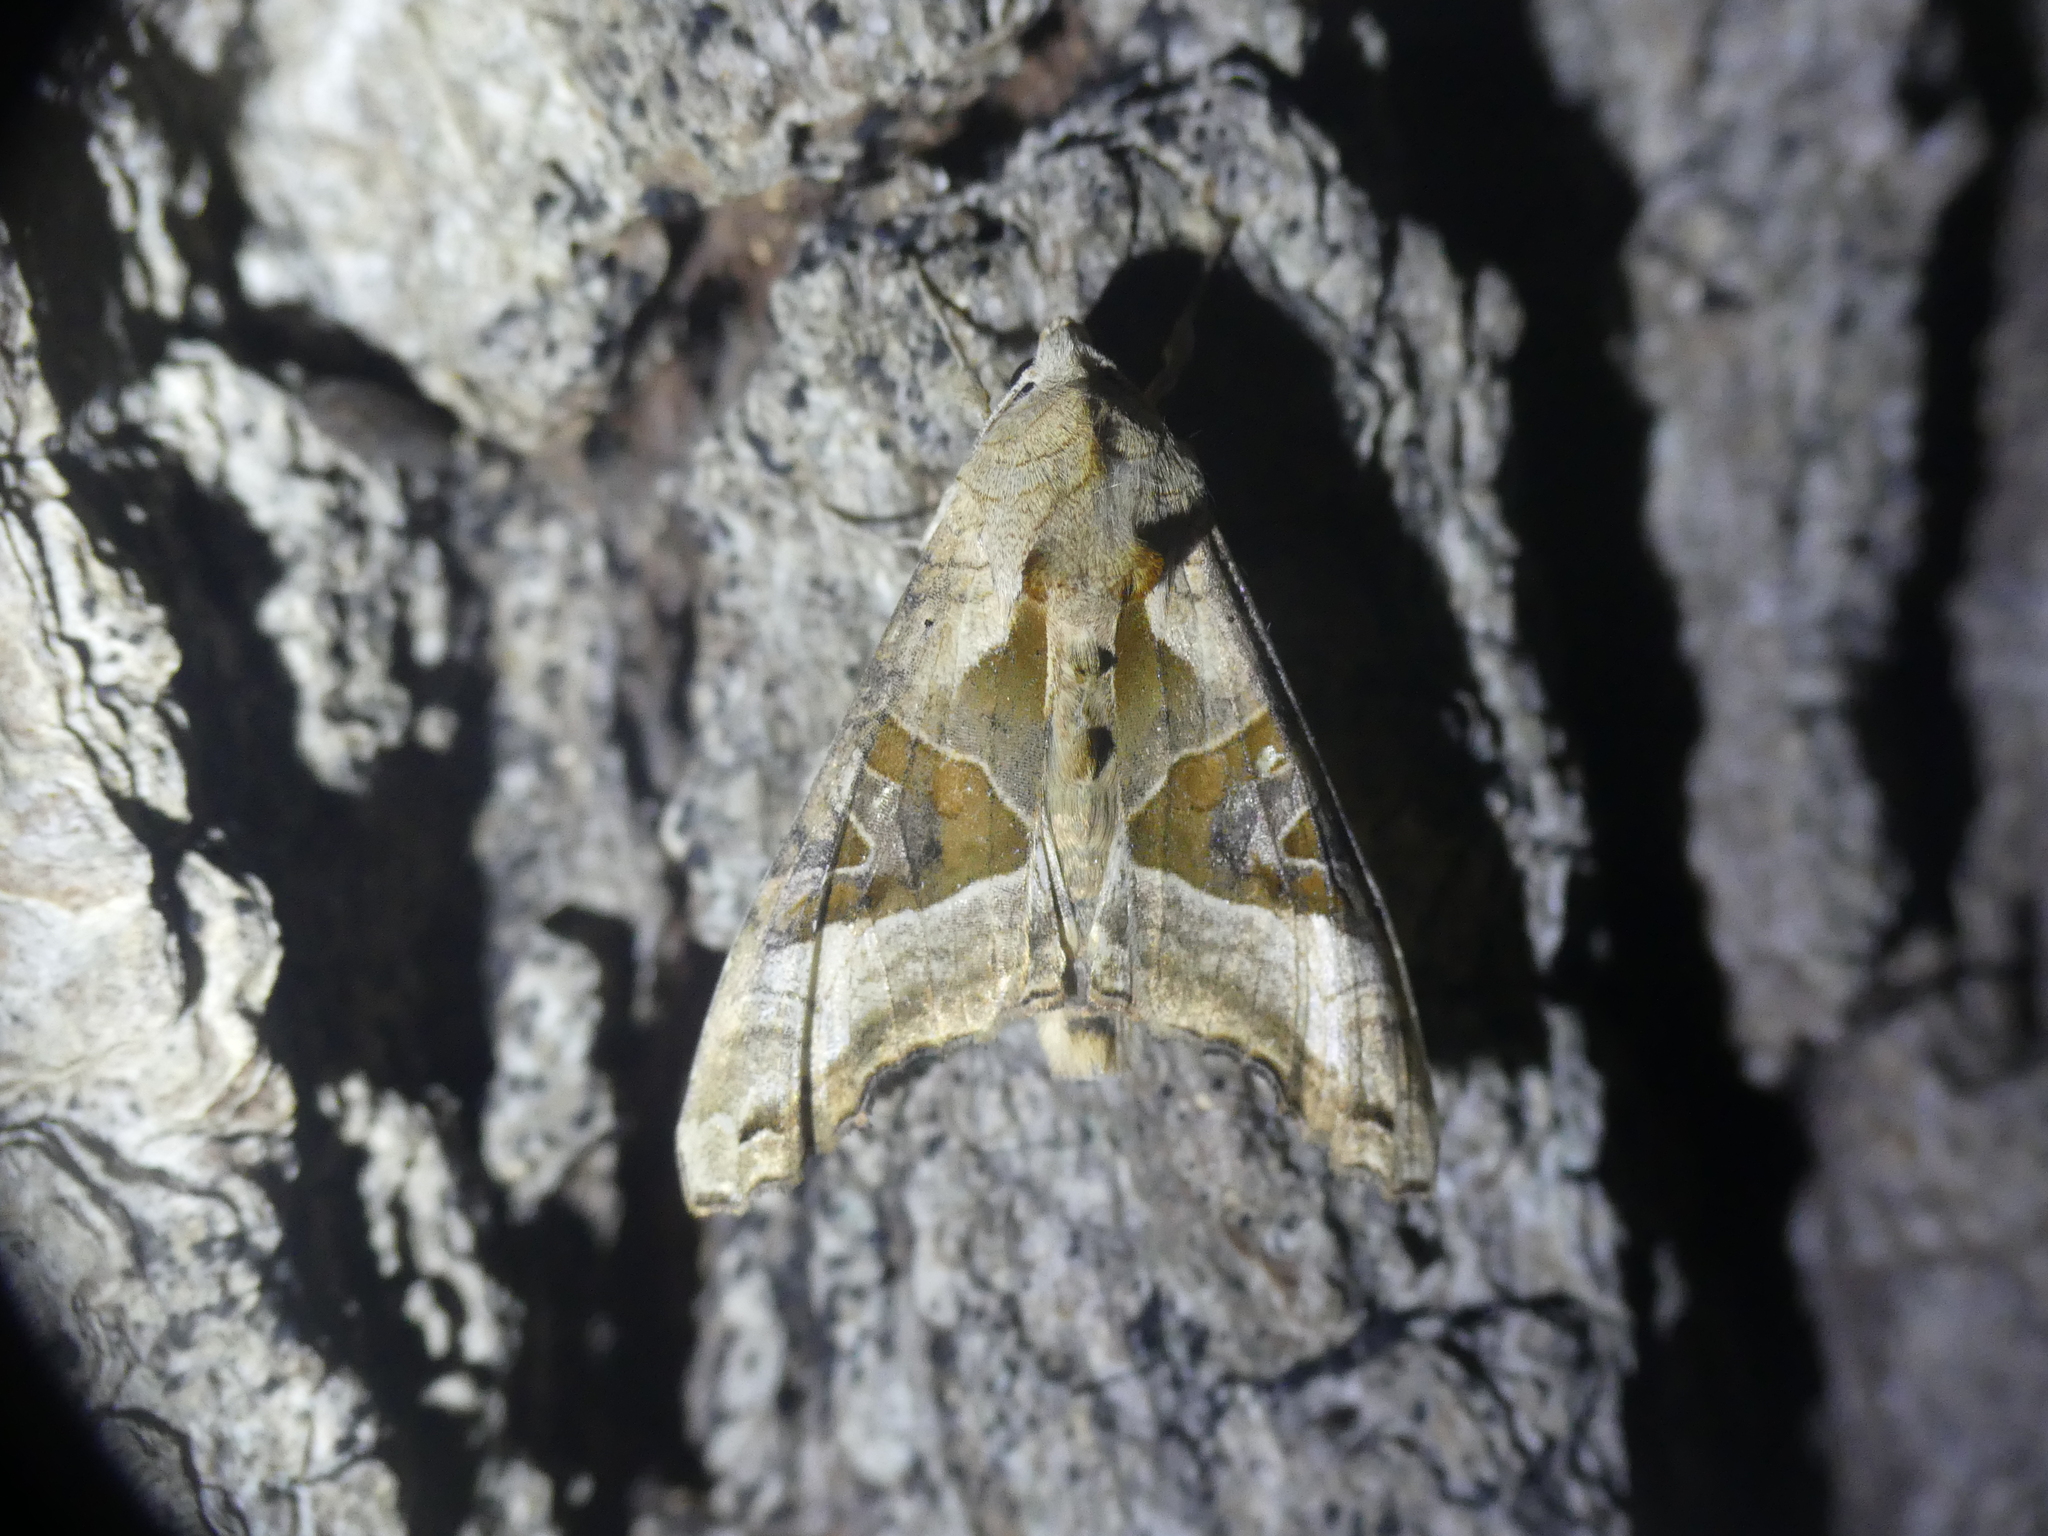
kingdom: Animalia
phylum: Arthropoda
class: Insecta
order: Lepidoptera
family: Noctuidae
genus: Phlogophora
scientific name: Phlogophora meticulosa
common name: Angle shades
